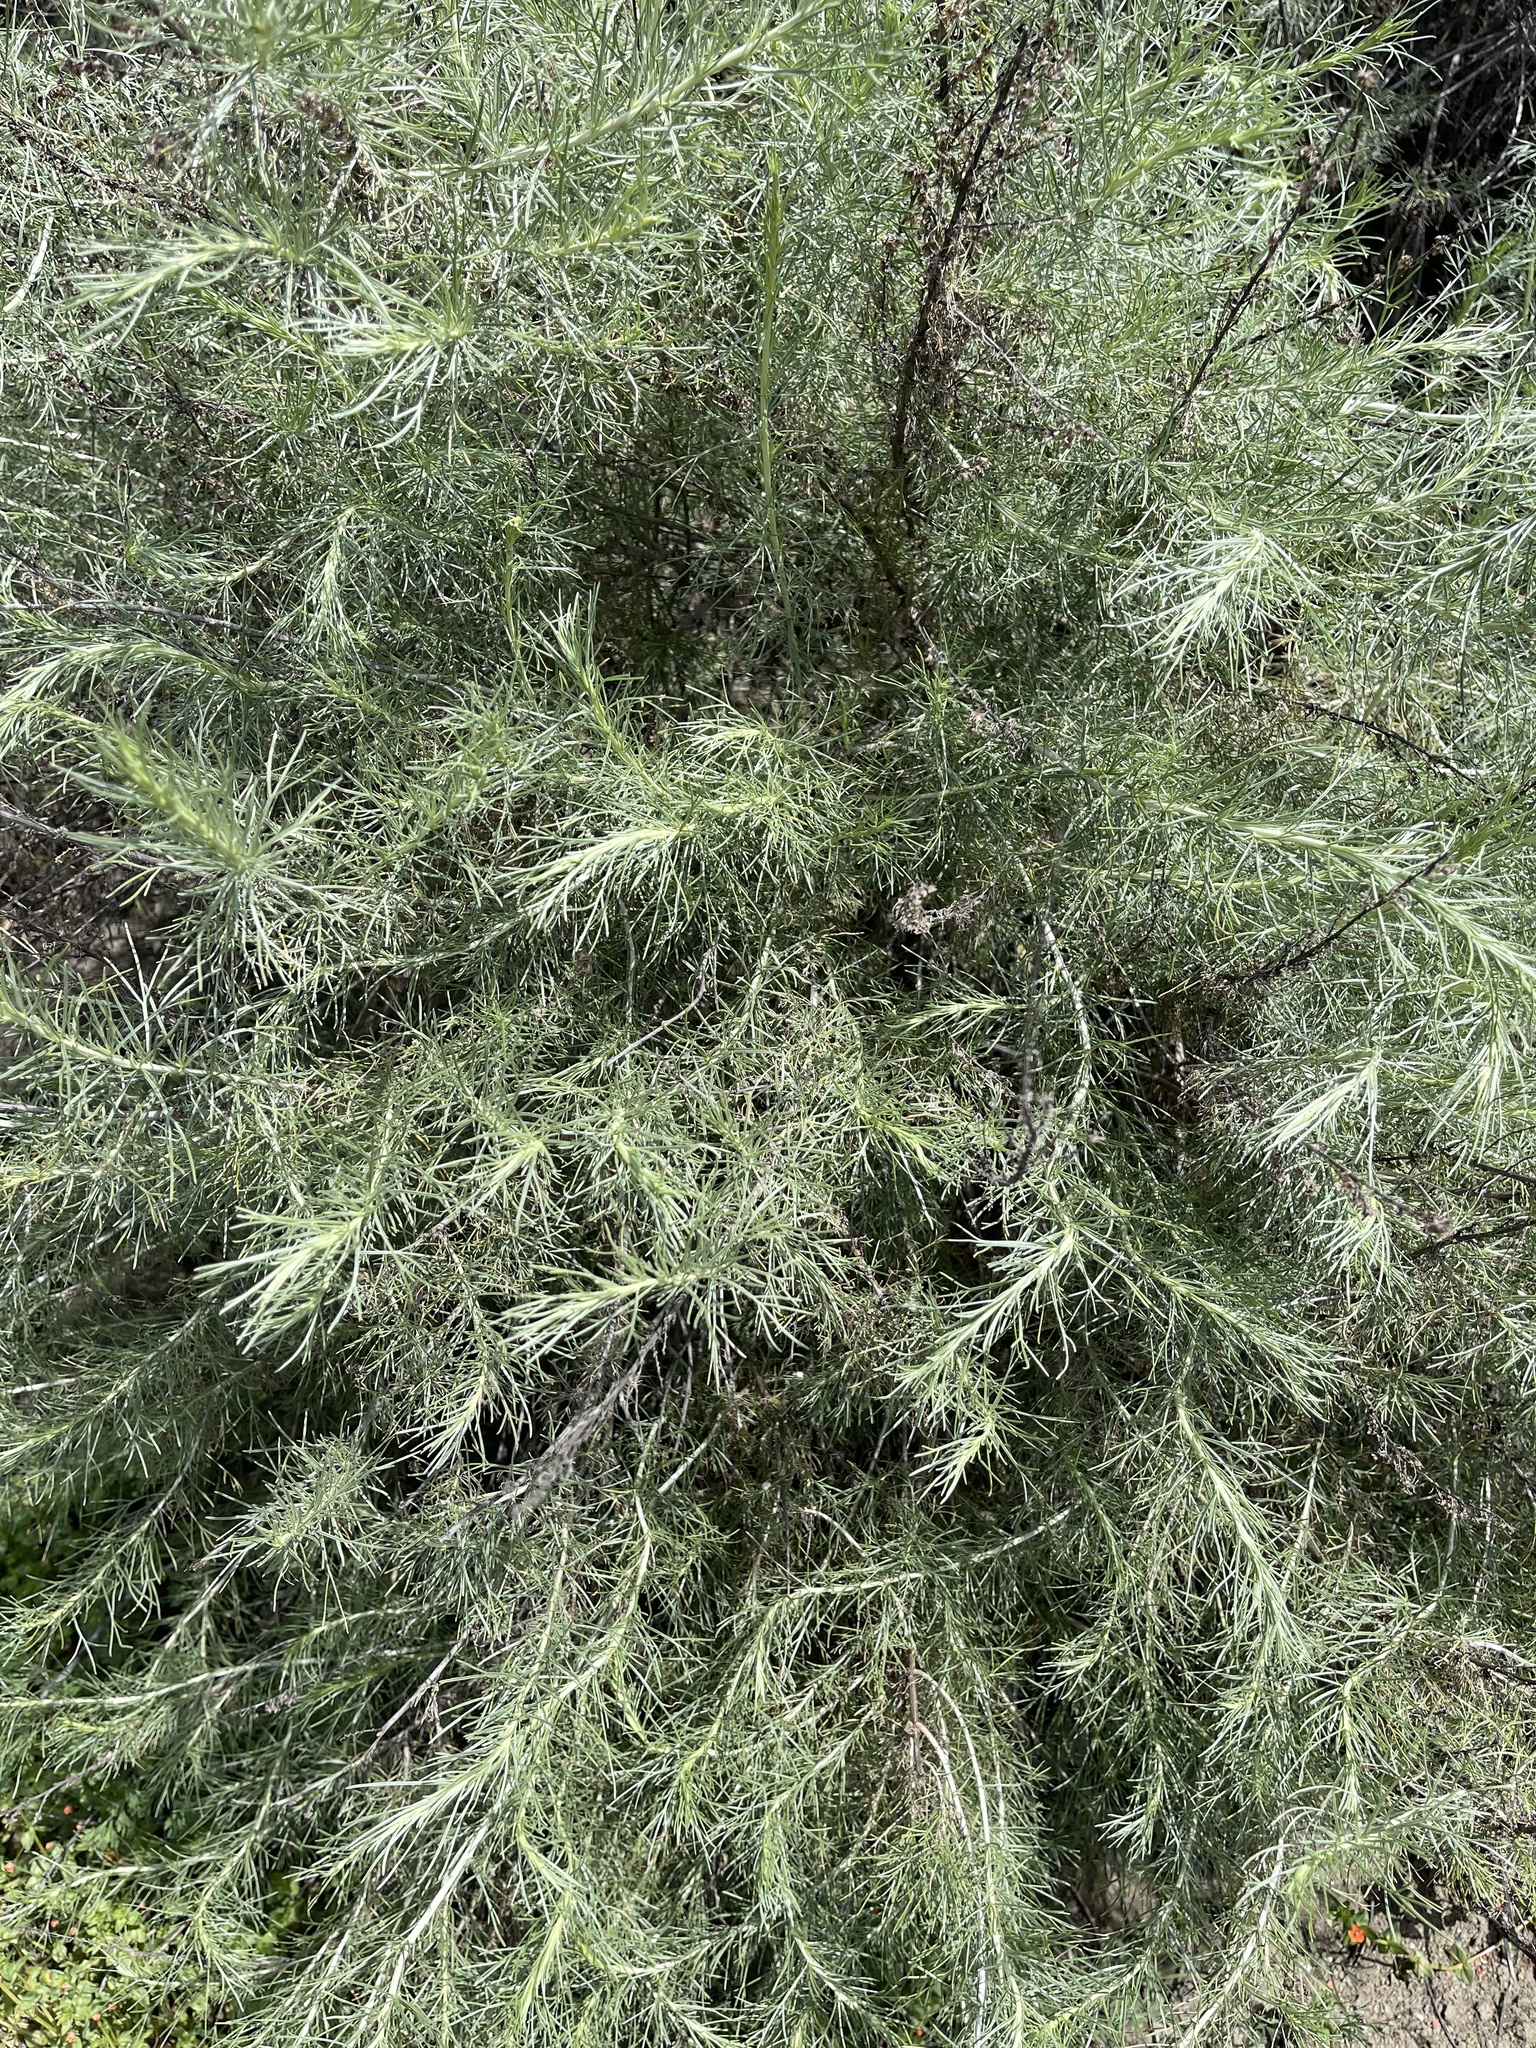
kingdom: Plantae
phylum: Tracheophyta
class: Magnoliopsida
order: Asterales
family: Asteraceae
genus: Artemisia
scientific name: Artemisia californica
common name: California sagebrush
